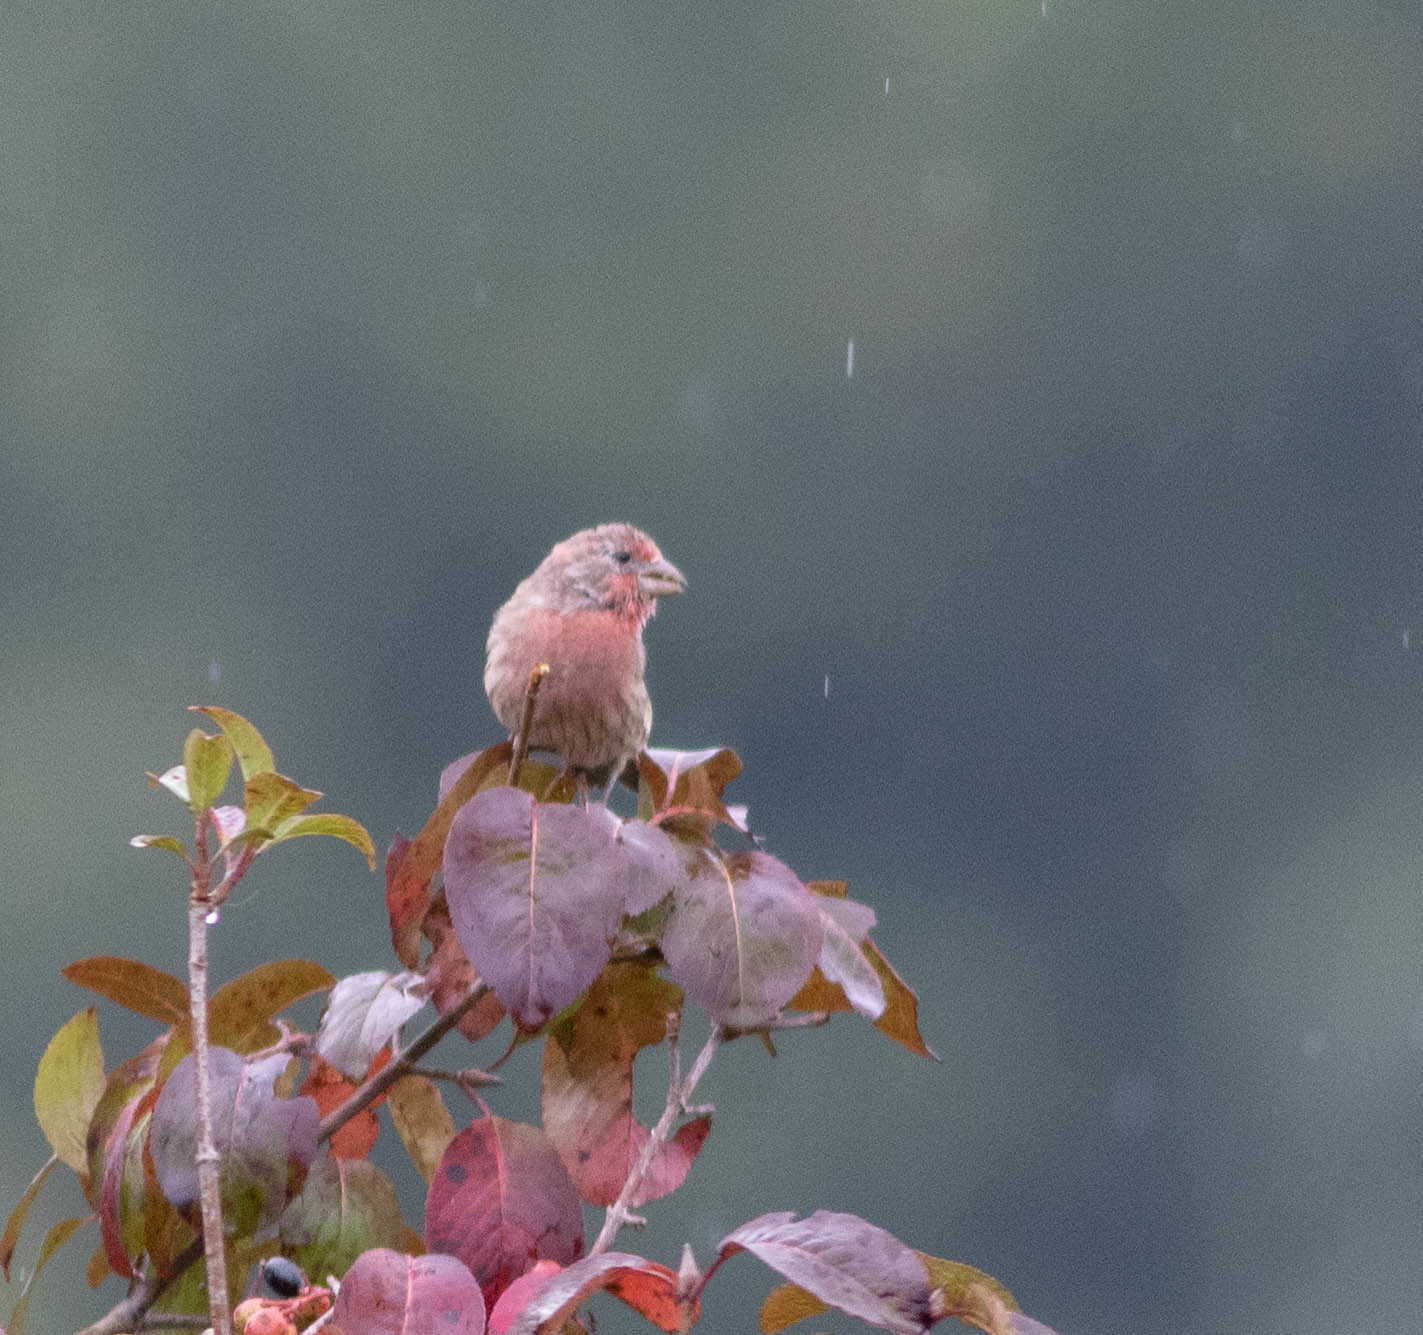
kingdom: Animalia
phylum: Chordata
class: Aves
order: Passeriformes
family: Fringillidae
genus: Haemorhous
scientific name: Haemorhous mexicanus
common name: House finch
